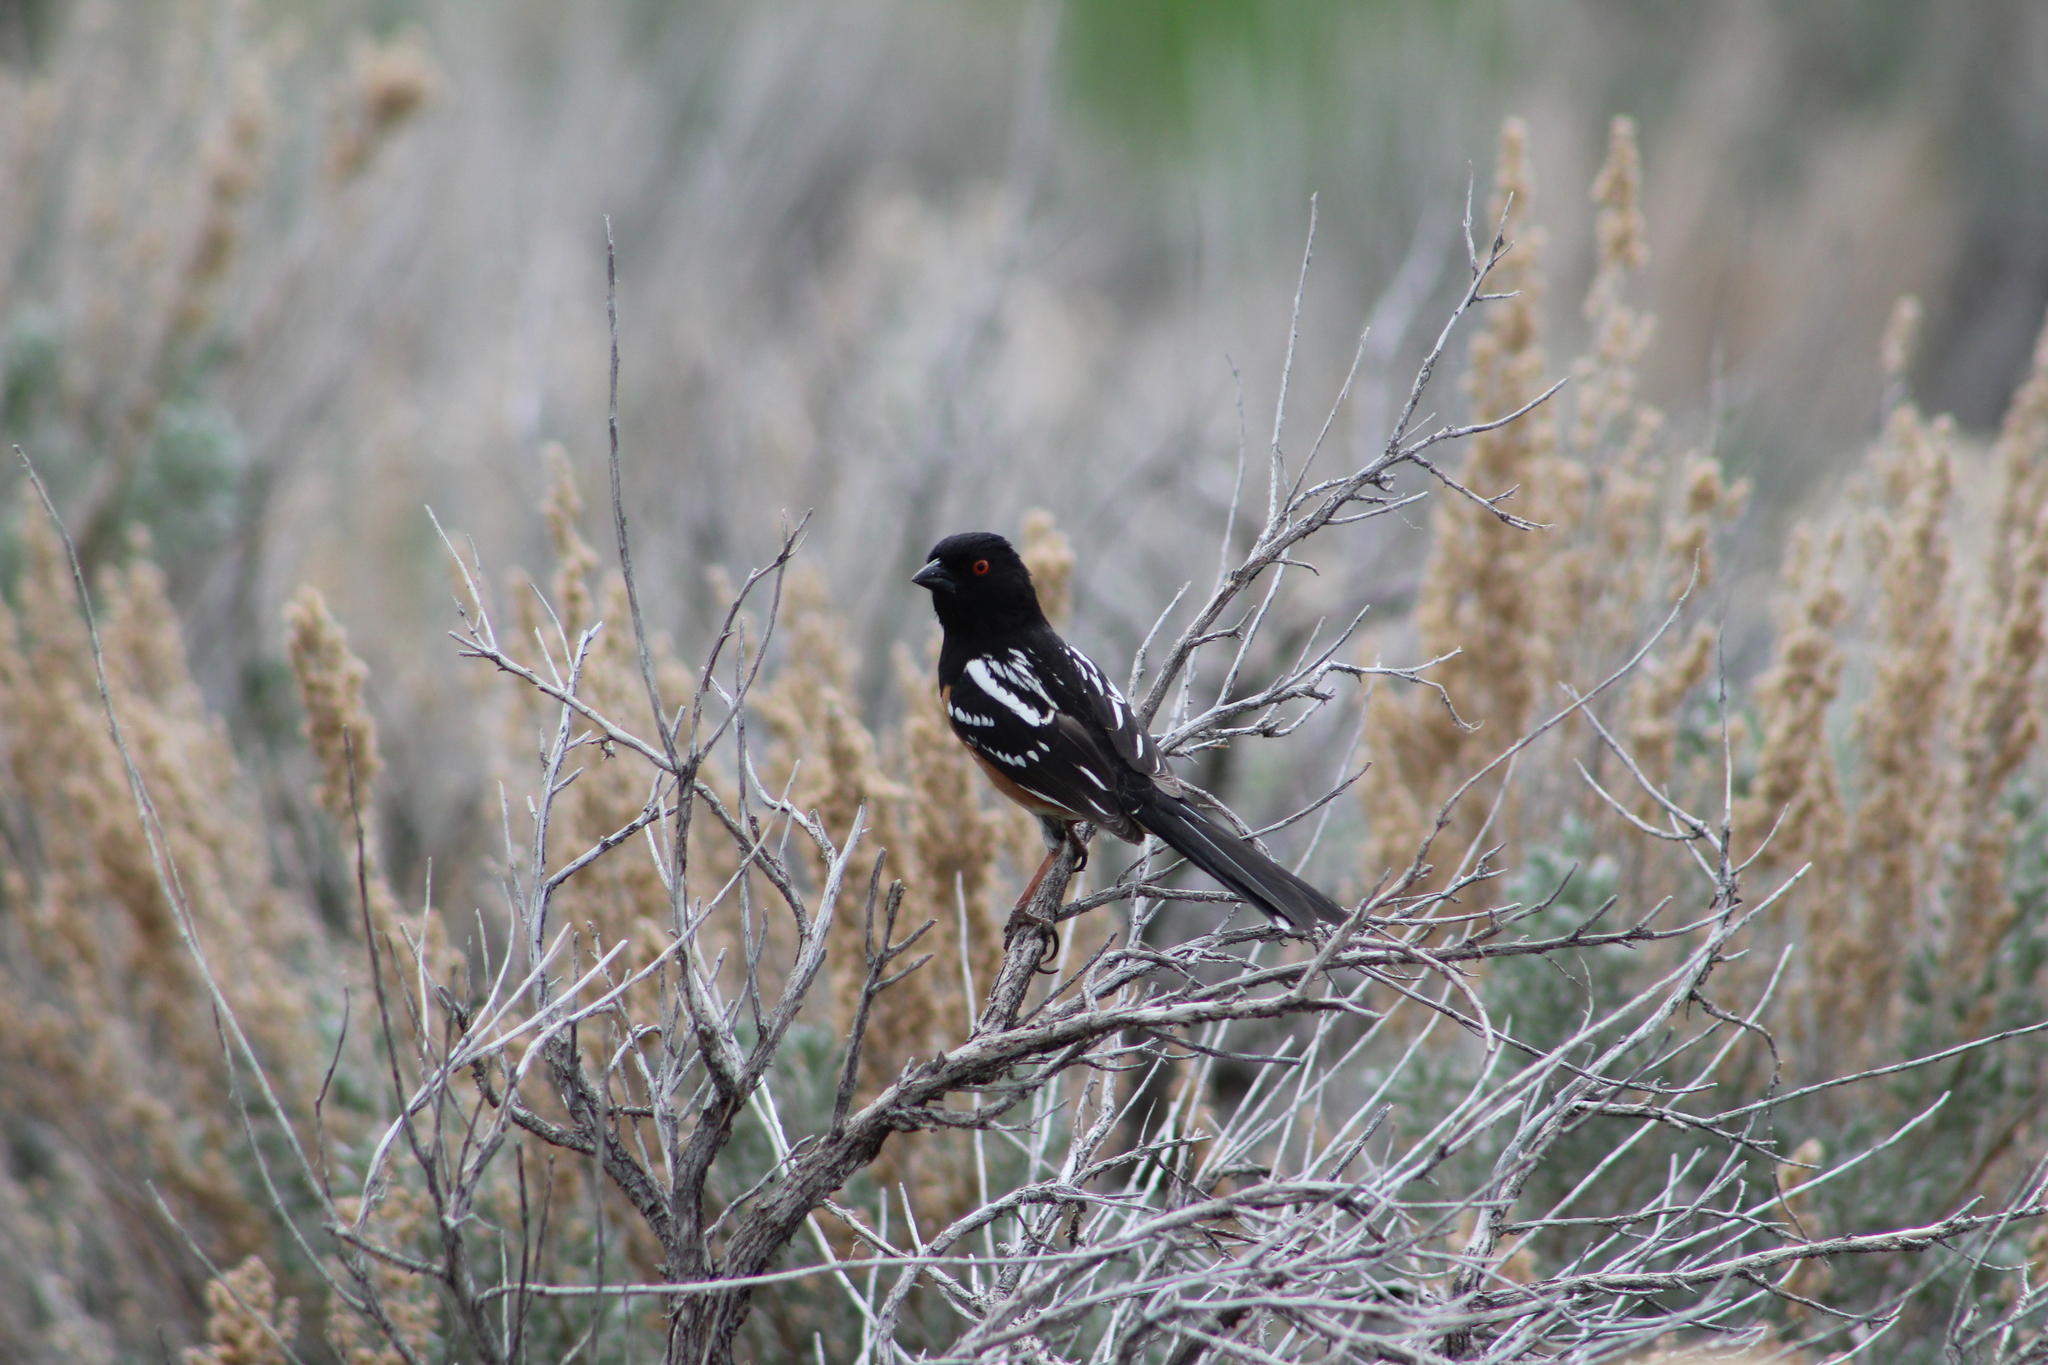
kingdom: Animalia
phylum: Chordata
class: Aves
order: Passeriformes
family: Passerellidae
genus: Pipilo
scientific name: Pipilo maculatus
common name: Spotted towhee
